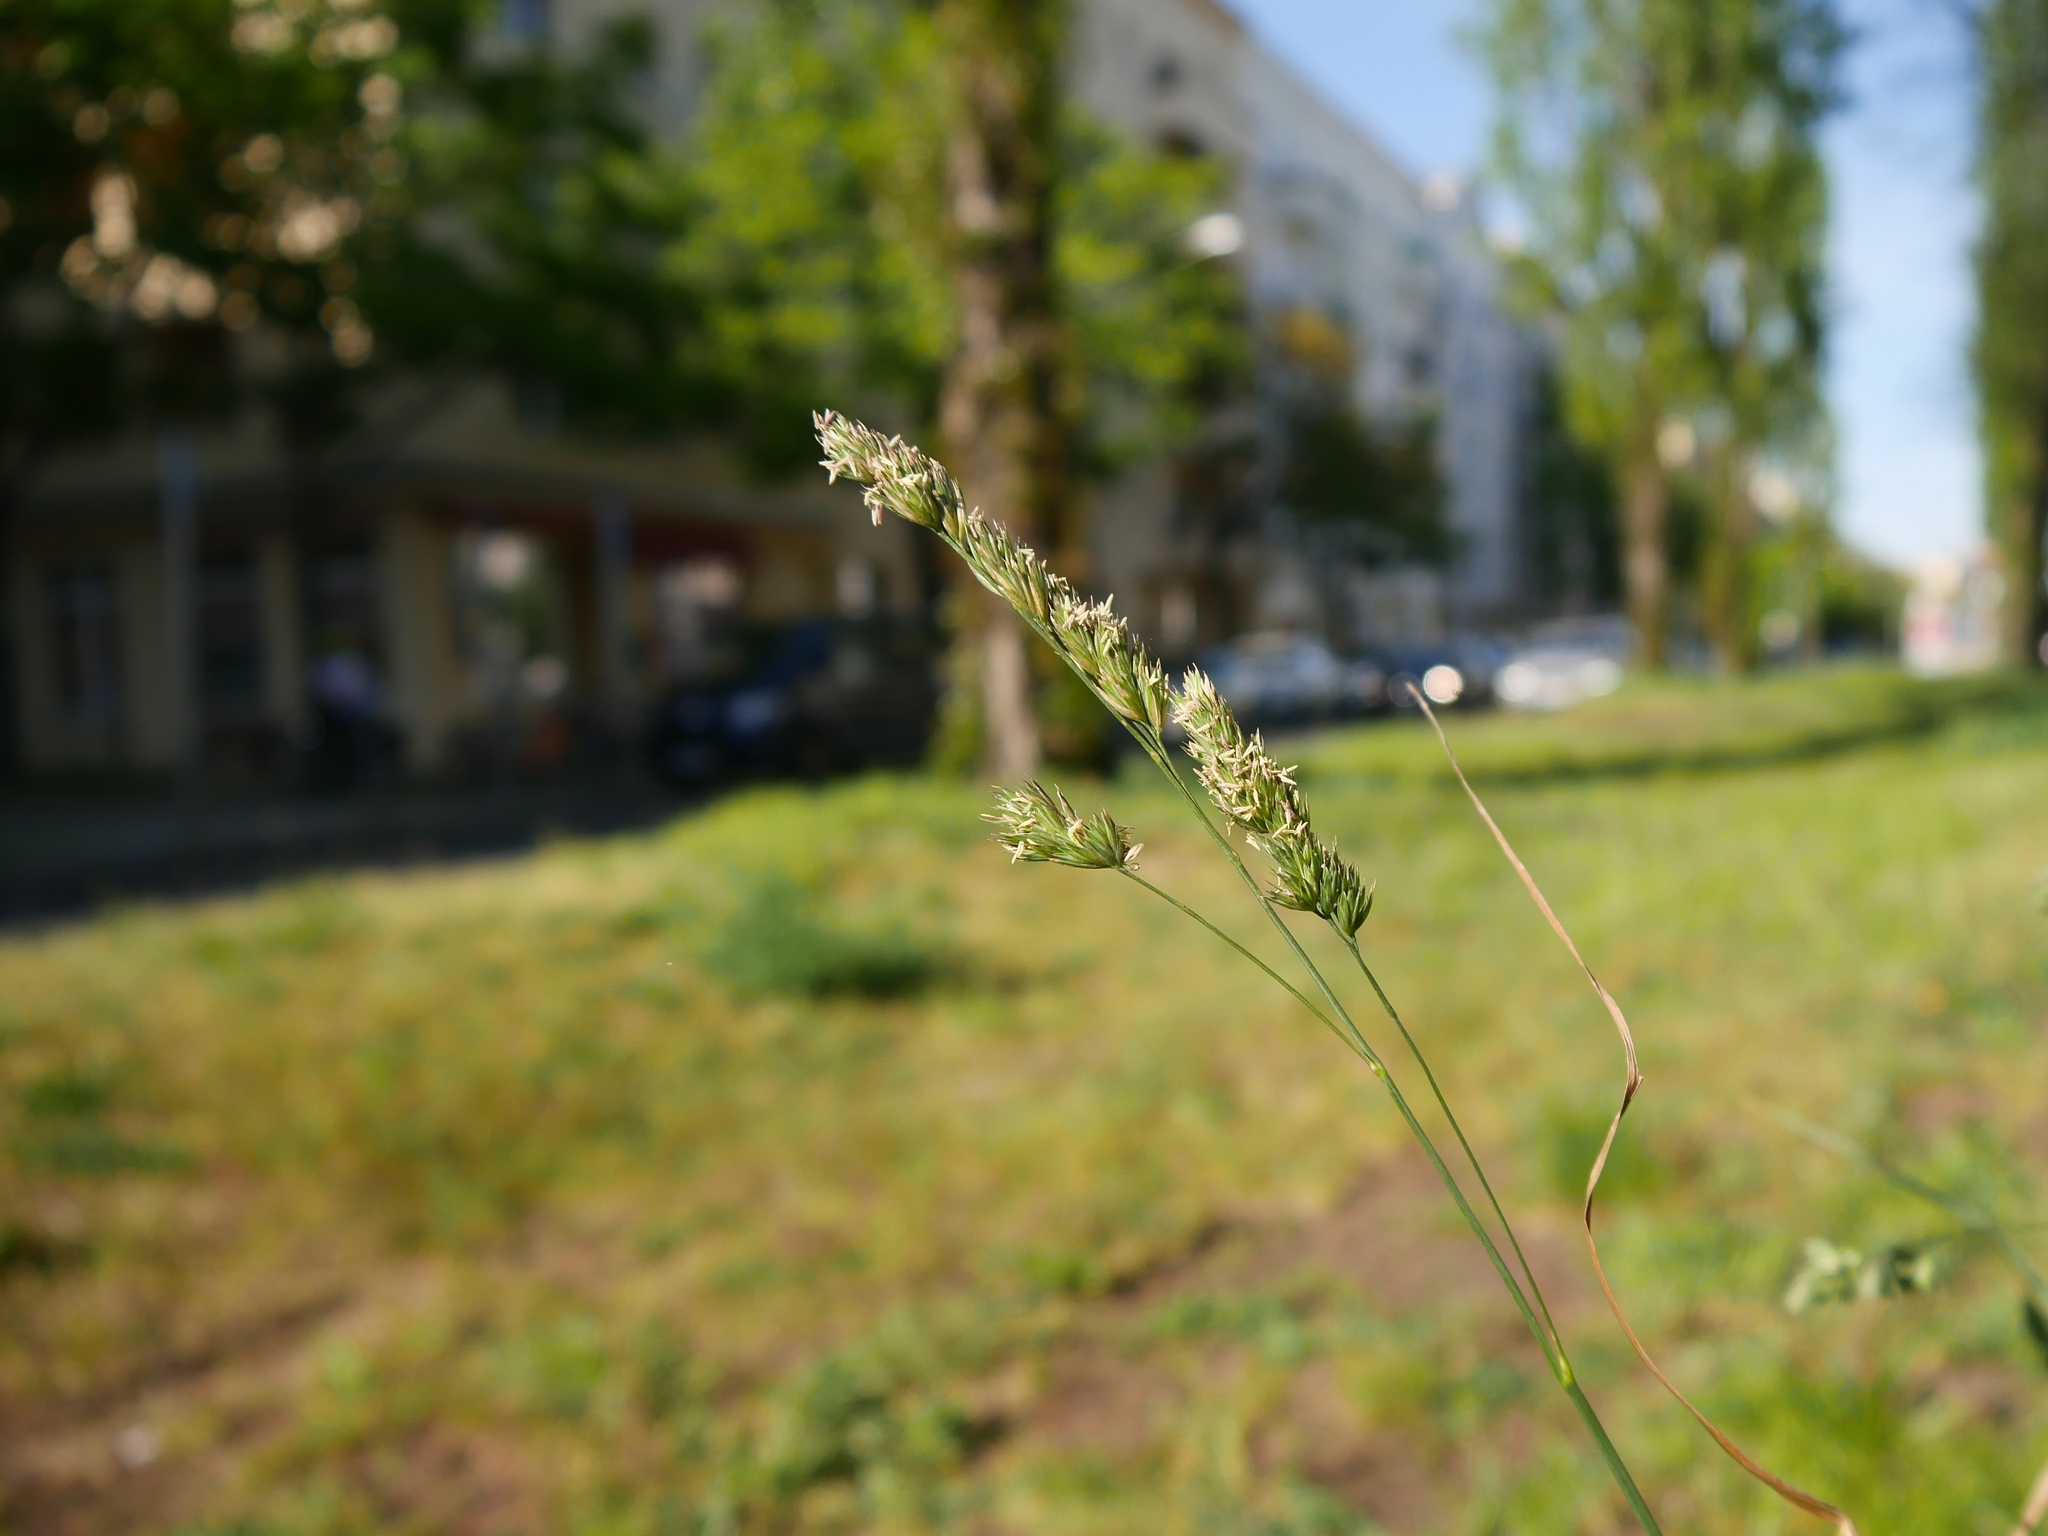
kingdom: Plantae
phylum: Tracheophyta
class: Liliopsida
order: Poales
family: Poaceae
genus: Dactylis
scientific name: Dactylis glomerata
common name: Orchardgrass
